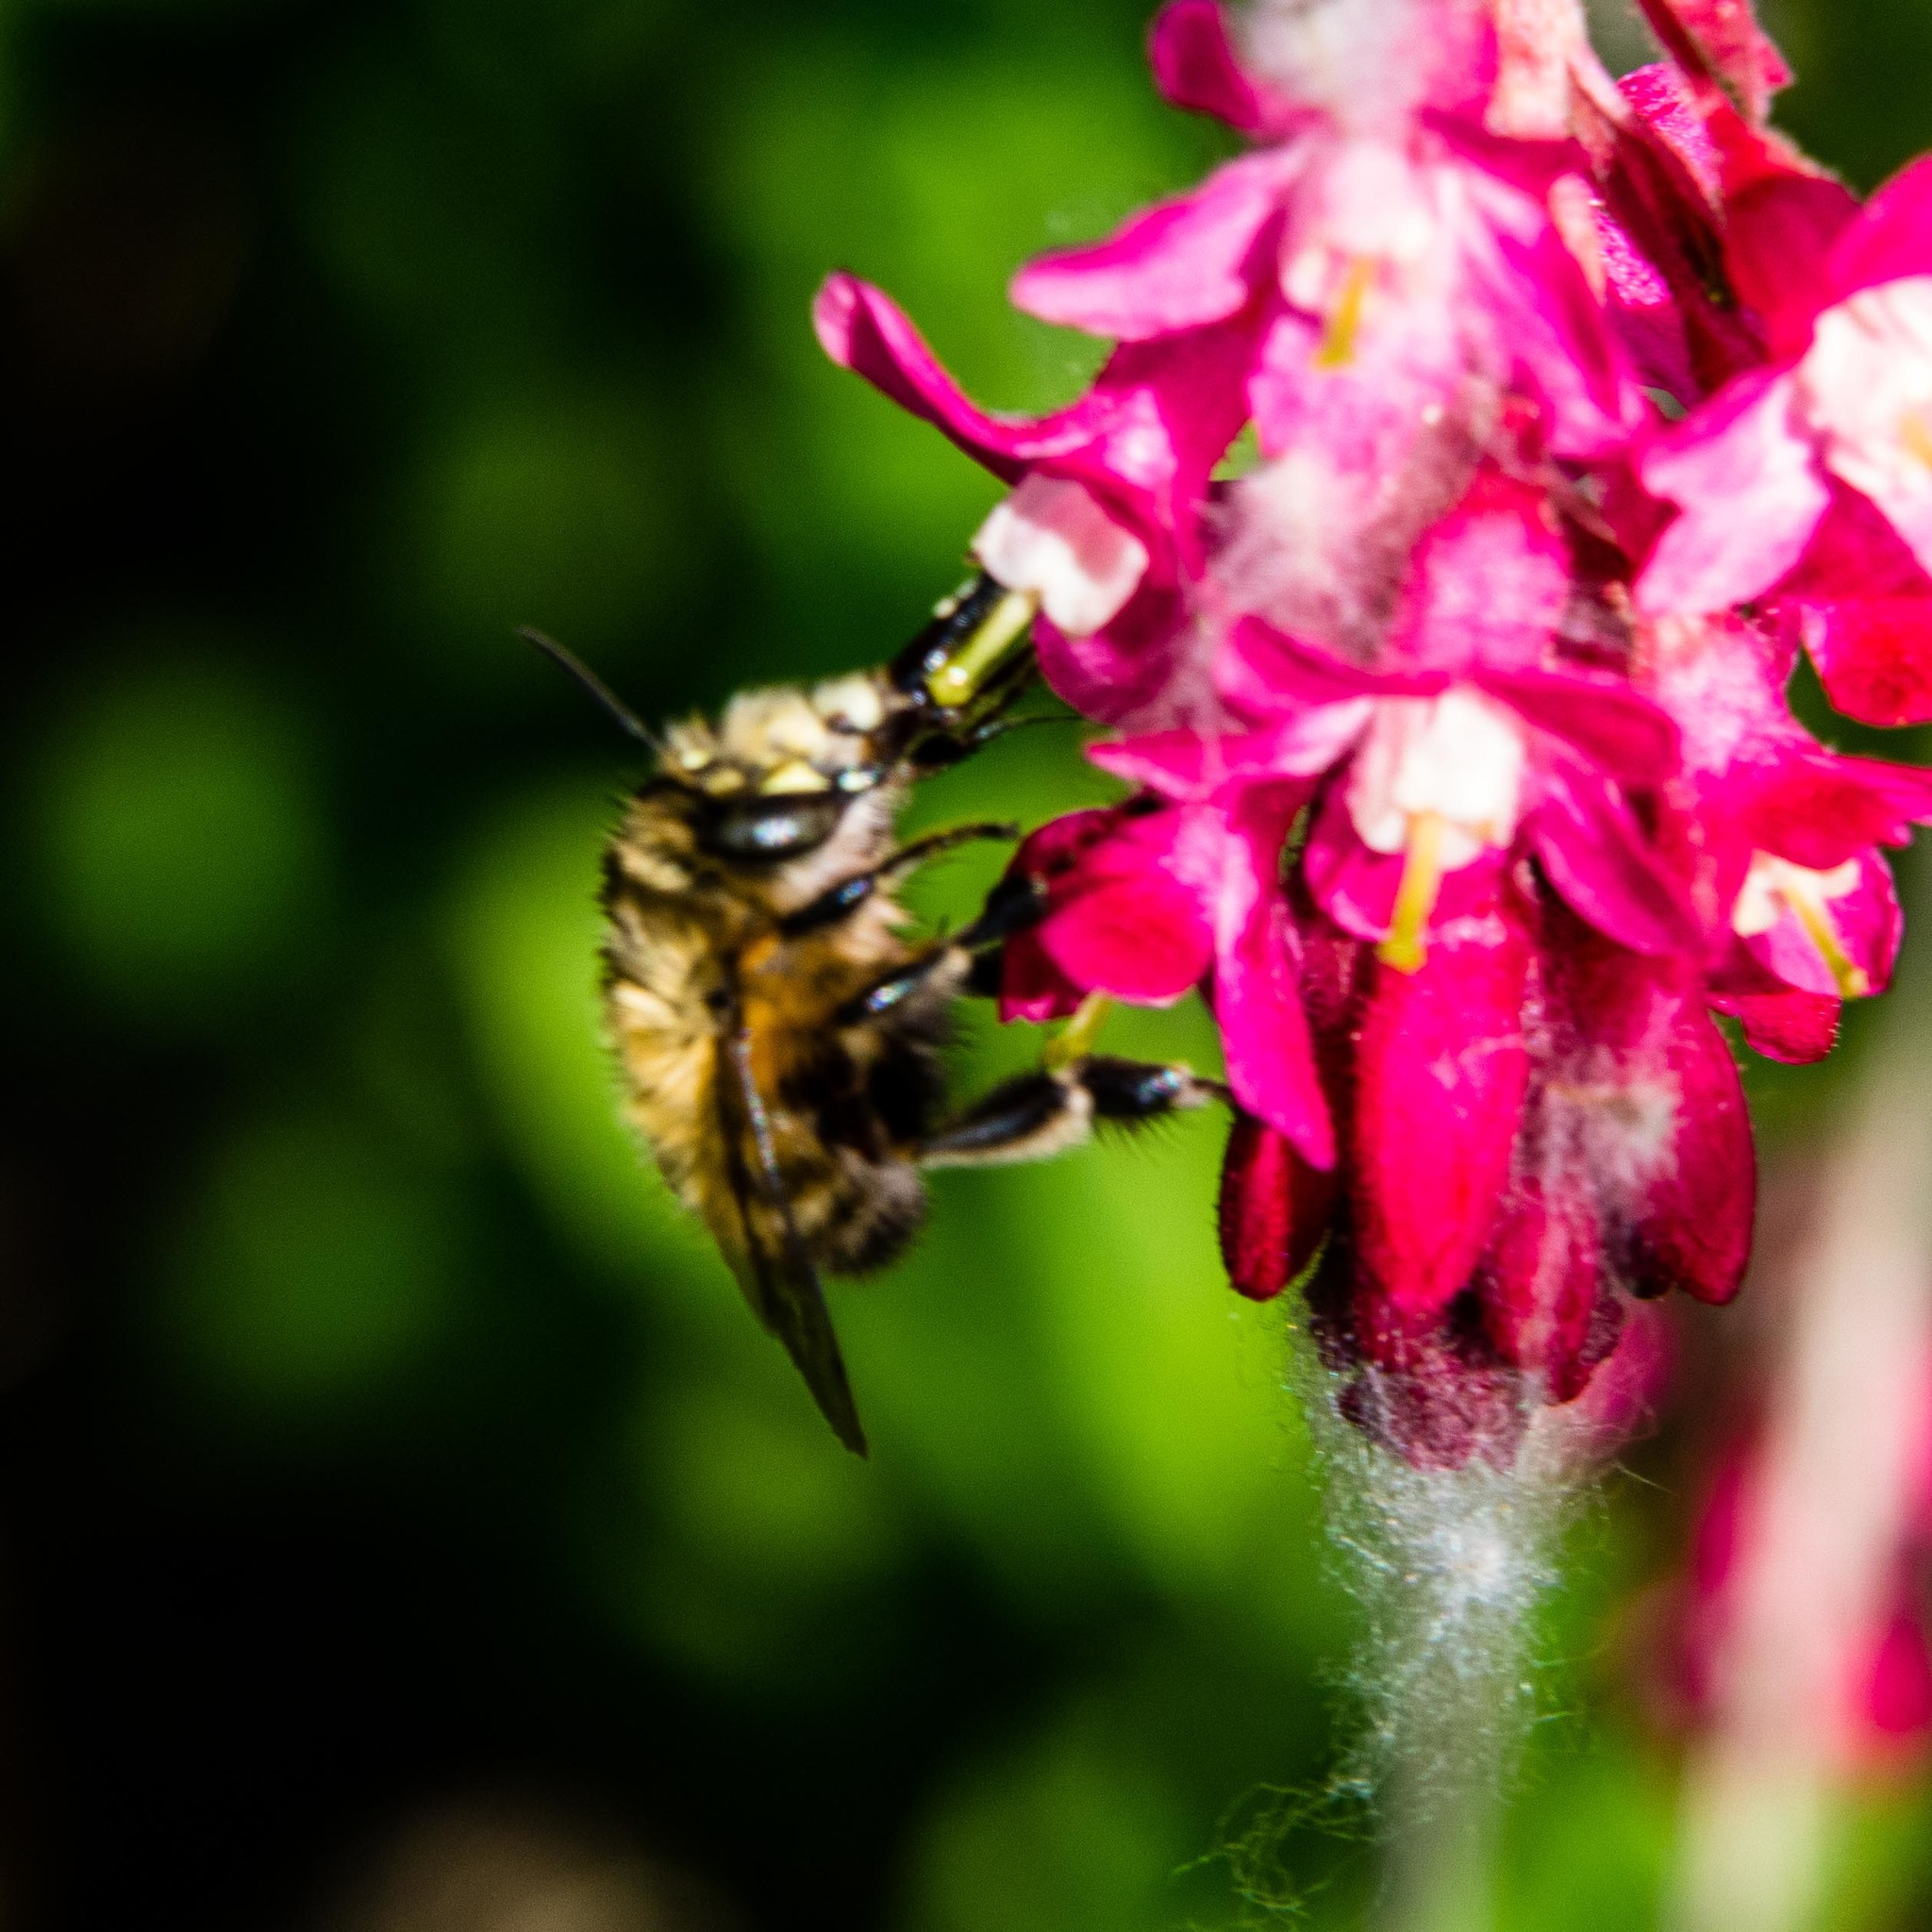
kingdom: Animalia
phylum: Arthropoda
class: Insecta
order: Hymenoptera
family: Apidae
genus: Anthophora
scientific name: Anthophora plumipes
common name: Hairy-footed flower bee
